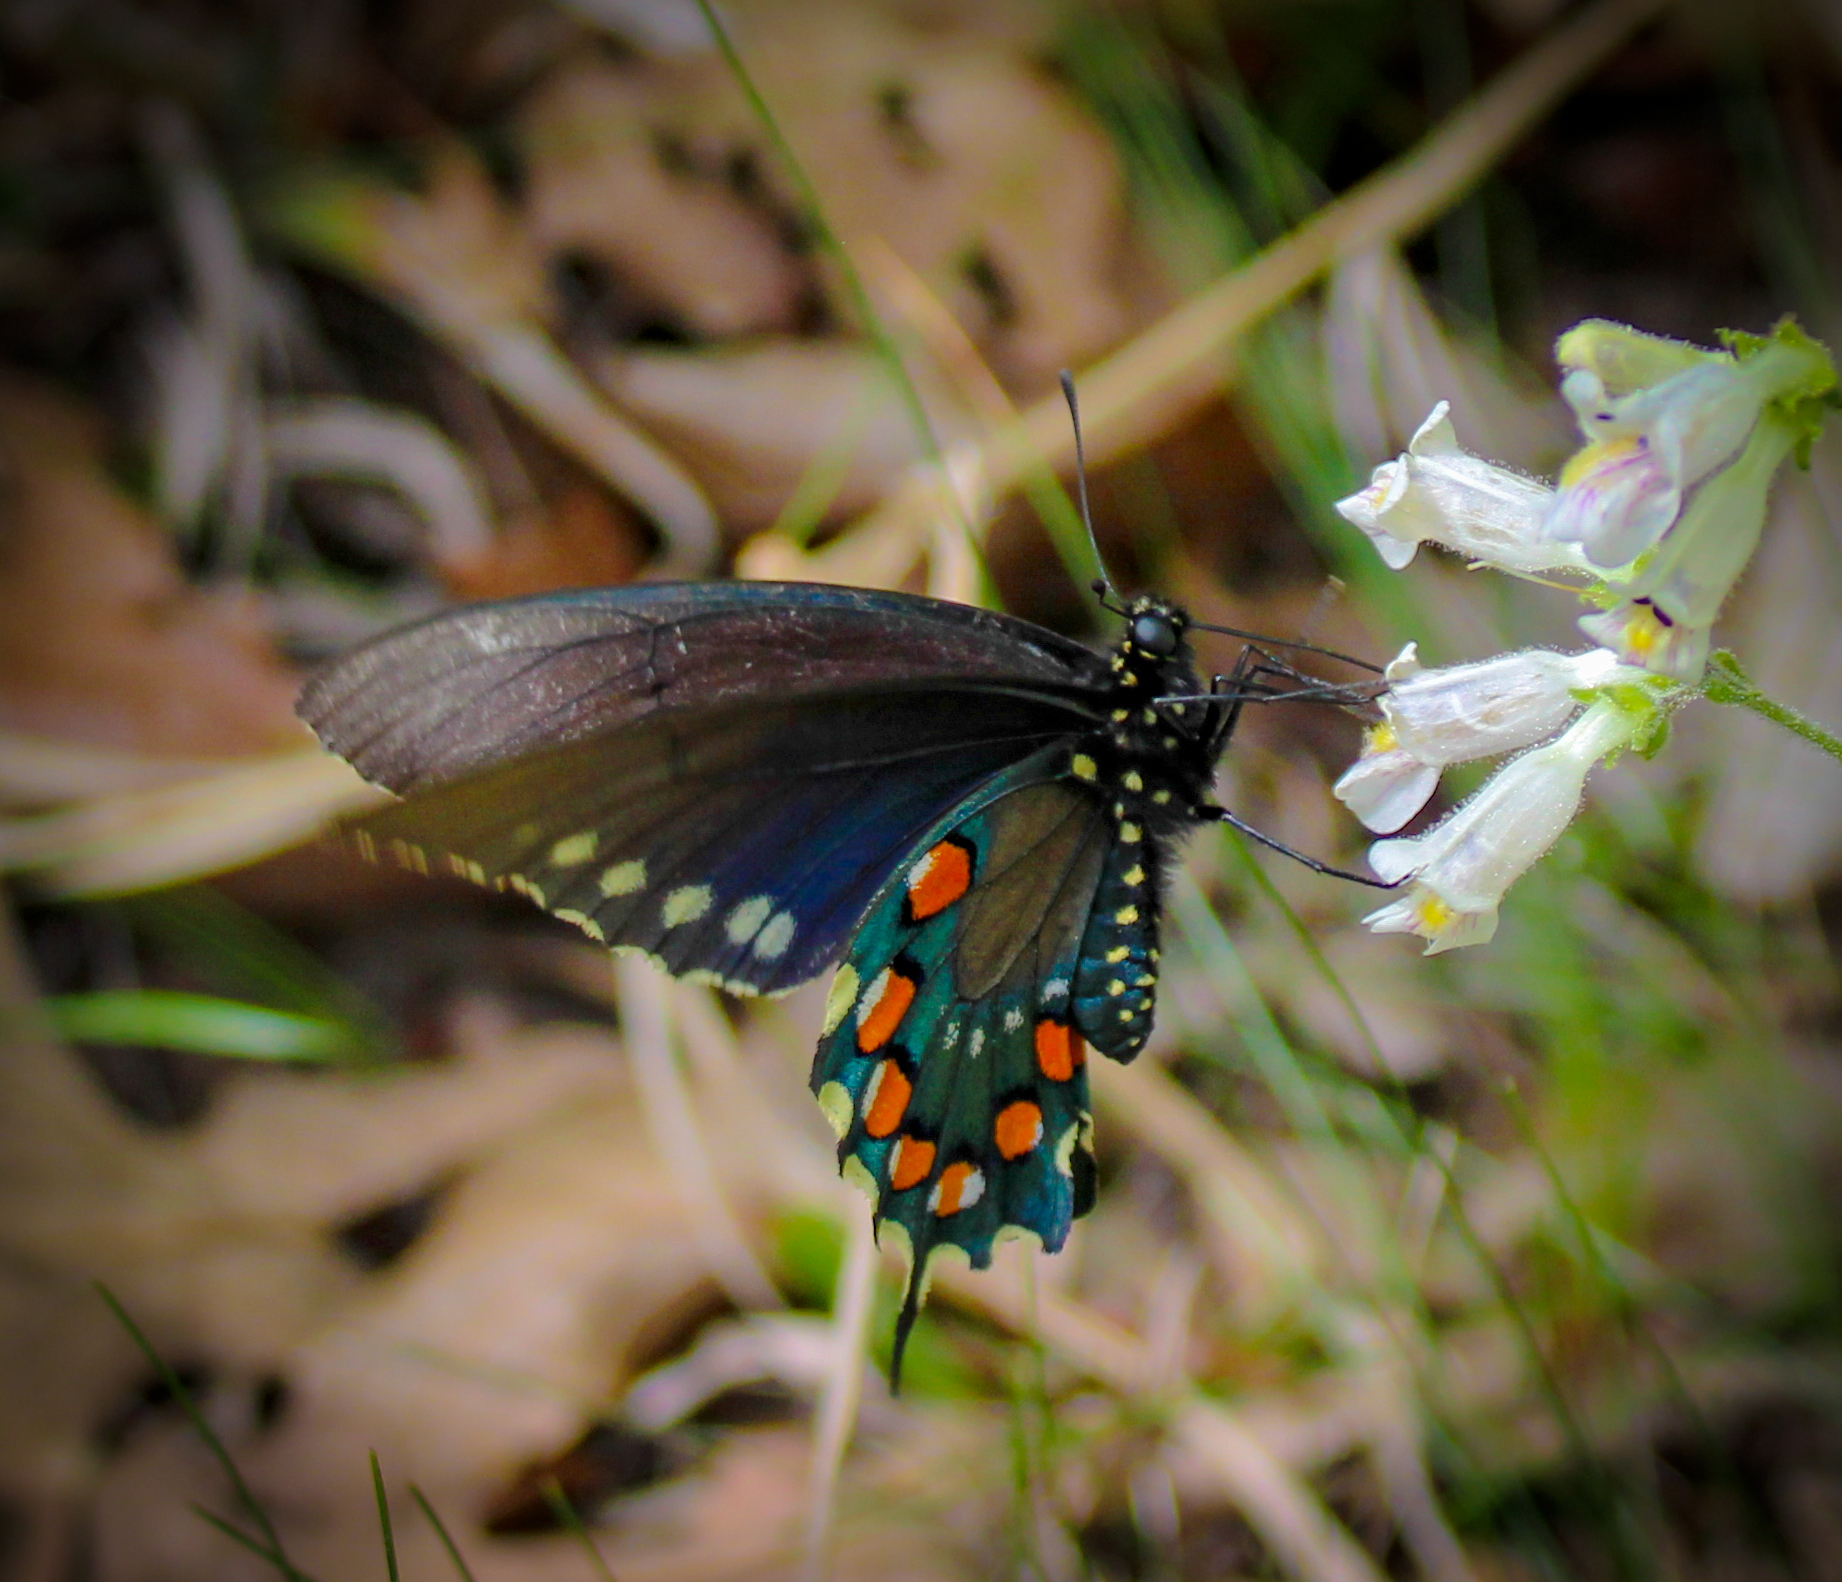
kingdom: Animalia
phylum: Arthropoda
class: Insecta
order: Lepidoptera
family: Papilionidae
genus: Battus
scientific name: Battus philenor
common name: Pipevine swallowtail
